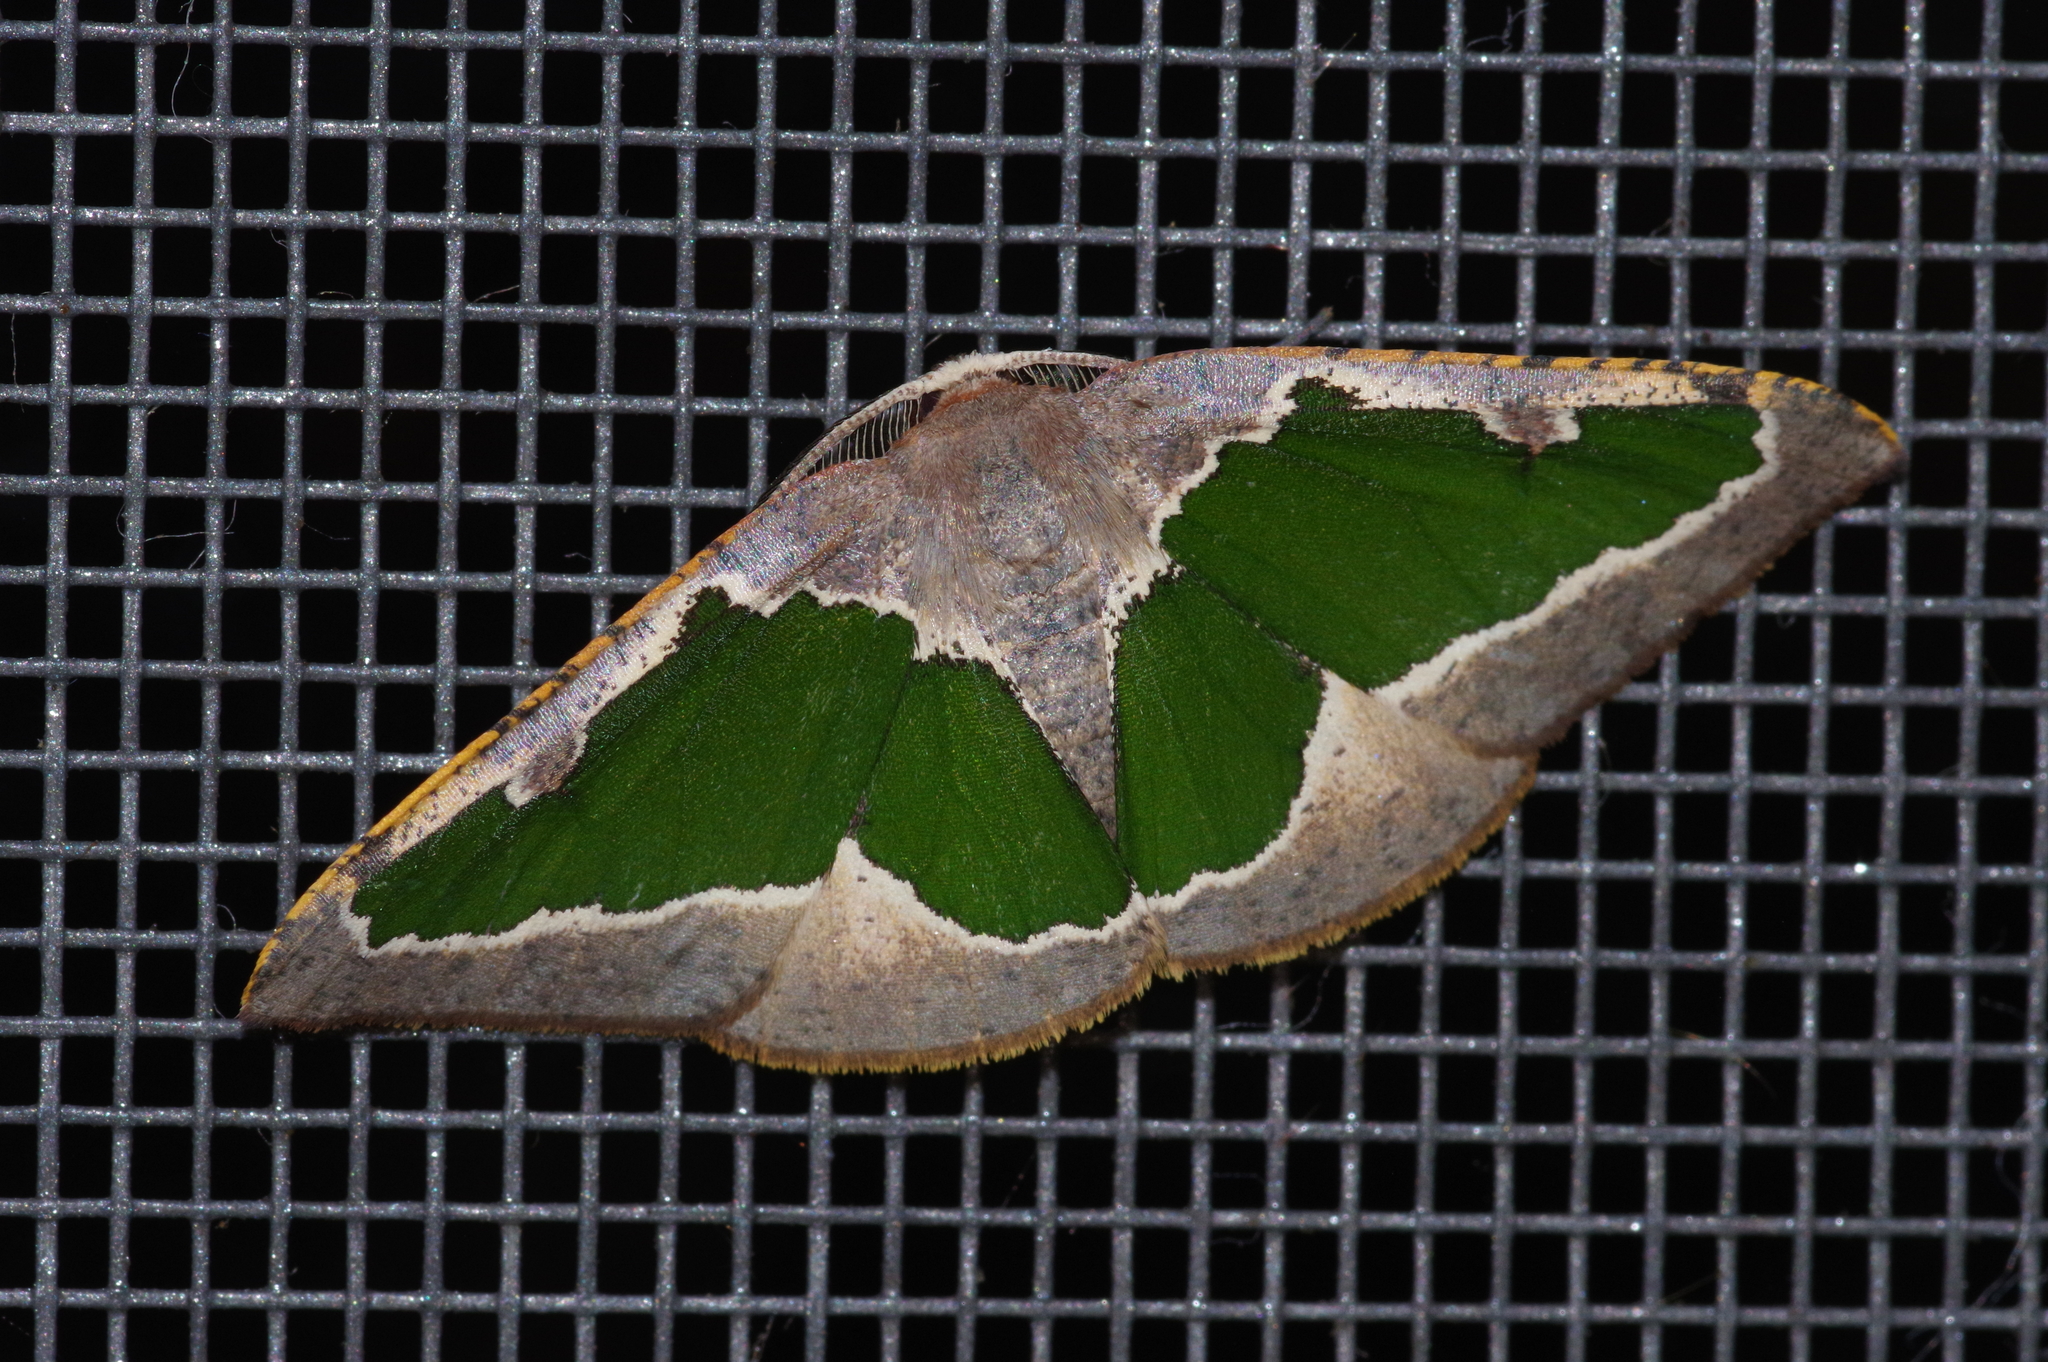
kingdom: Animalia
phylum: Arthropoda
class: Insecta
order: Lepidoptera
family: Geometridae
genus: Celenna
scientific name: Celenna festivaria
